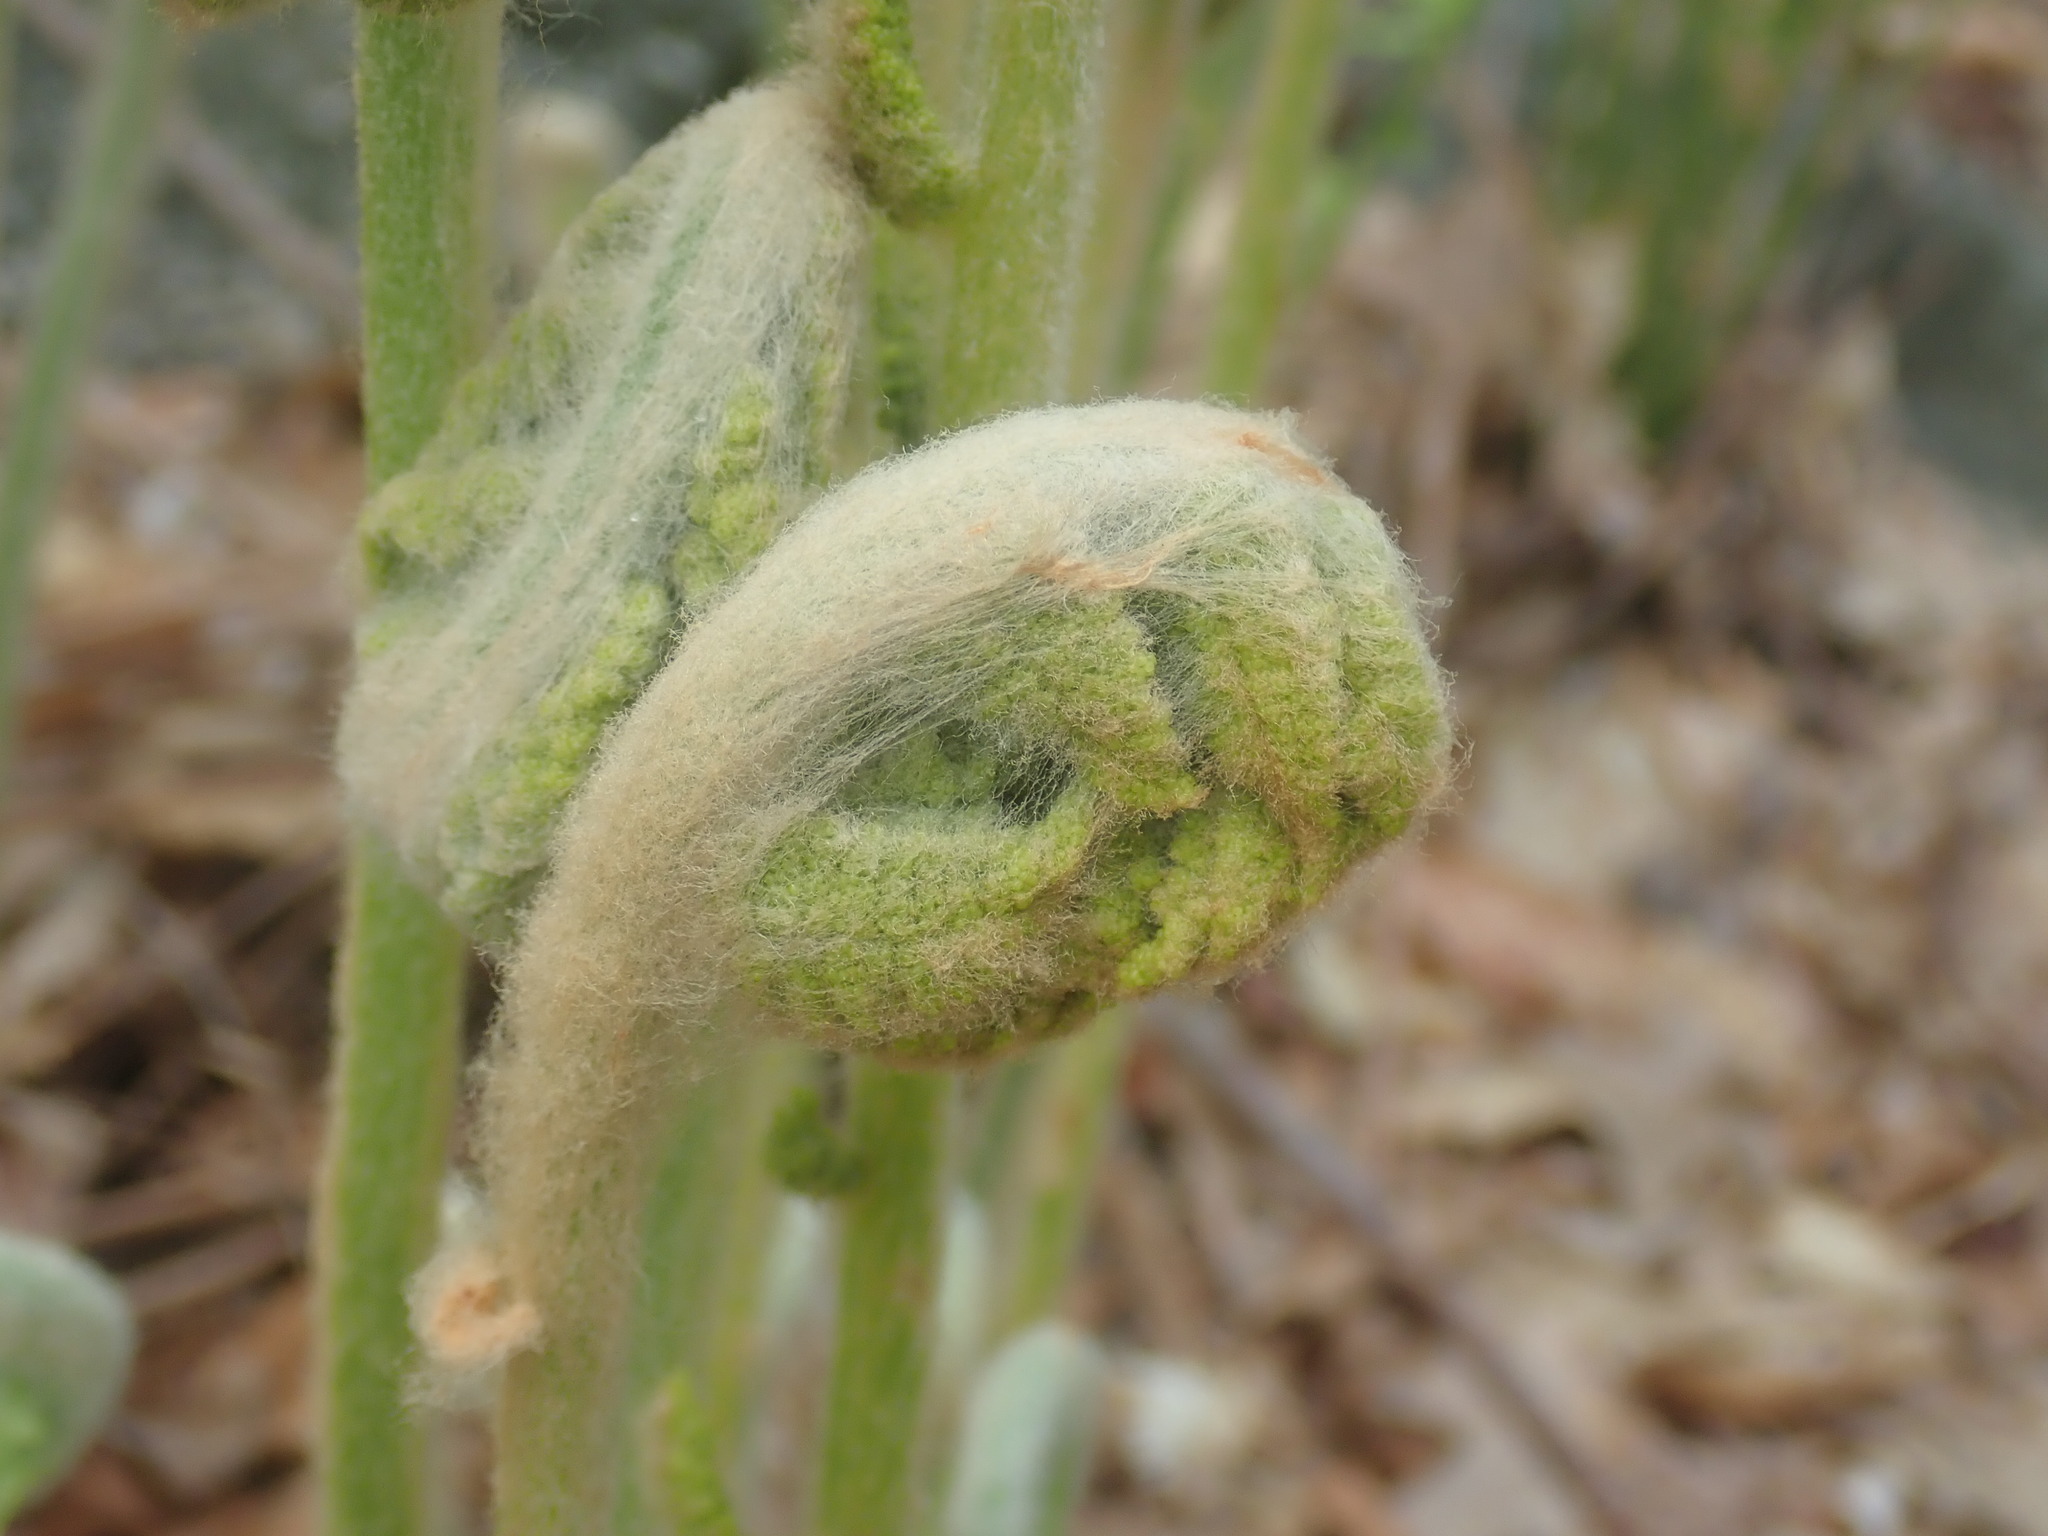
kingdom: Plantae
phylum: Tracheophyta
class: Polypodiopsida
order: Osmundales
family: Osmundaceae
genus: Osmundastrum
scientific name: Osmundastrum cinnamomeum
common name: Cinnamon fern
